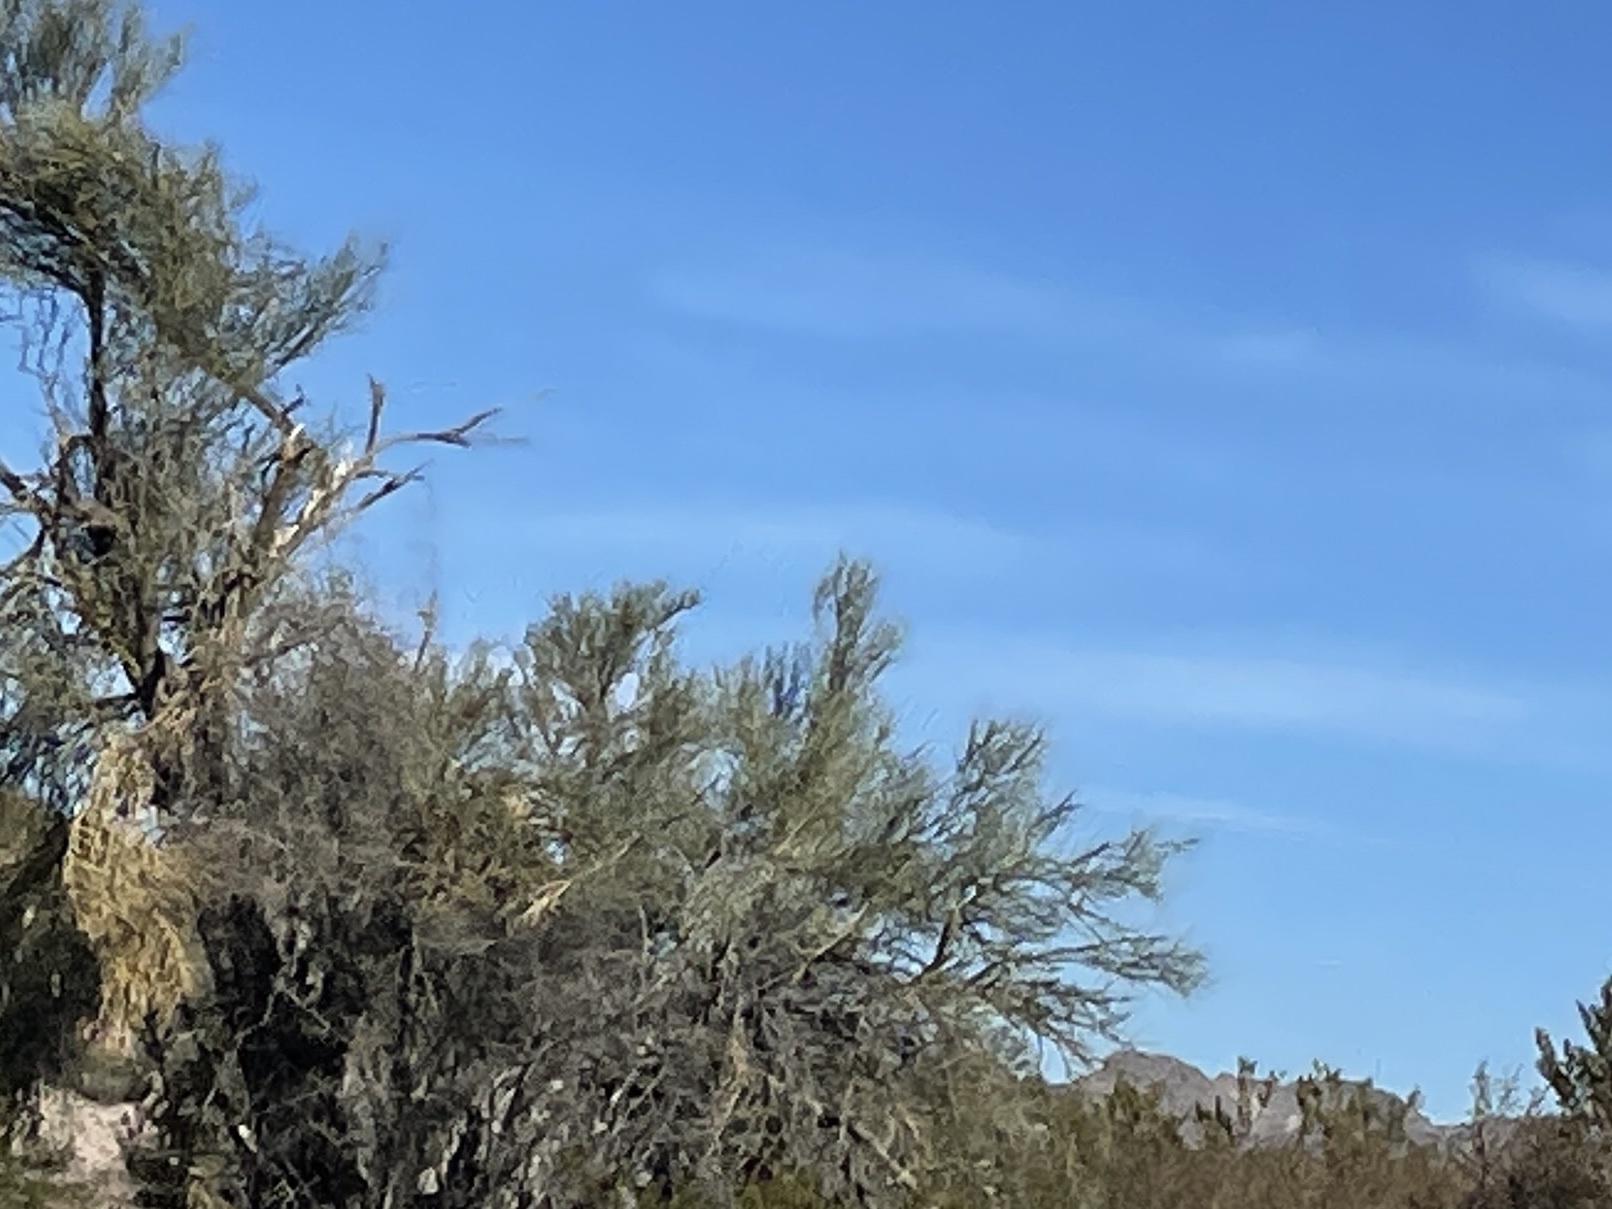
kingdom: Plantae
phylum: Tracheophyta
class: Magnoliopsida
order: Celastrales
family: Celastraceae
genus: Canotia
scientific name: Canotia holacantha
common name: Crucifixion thorns
